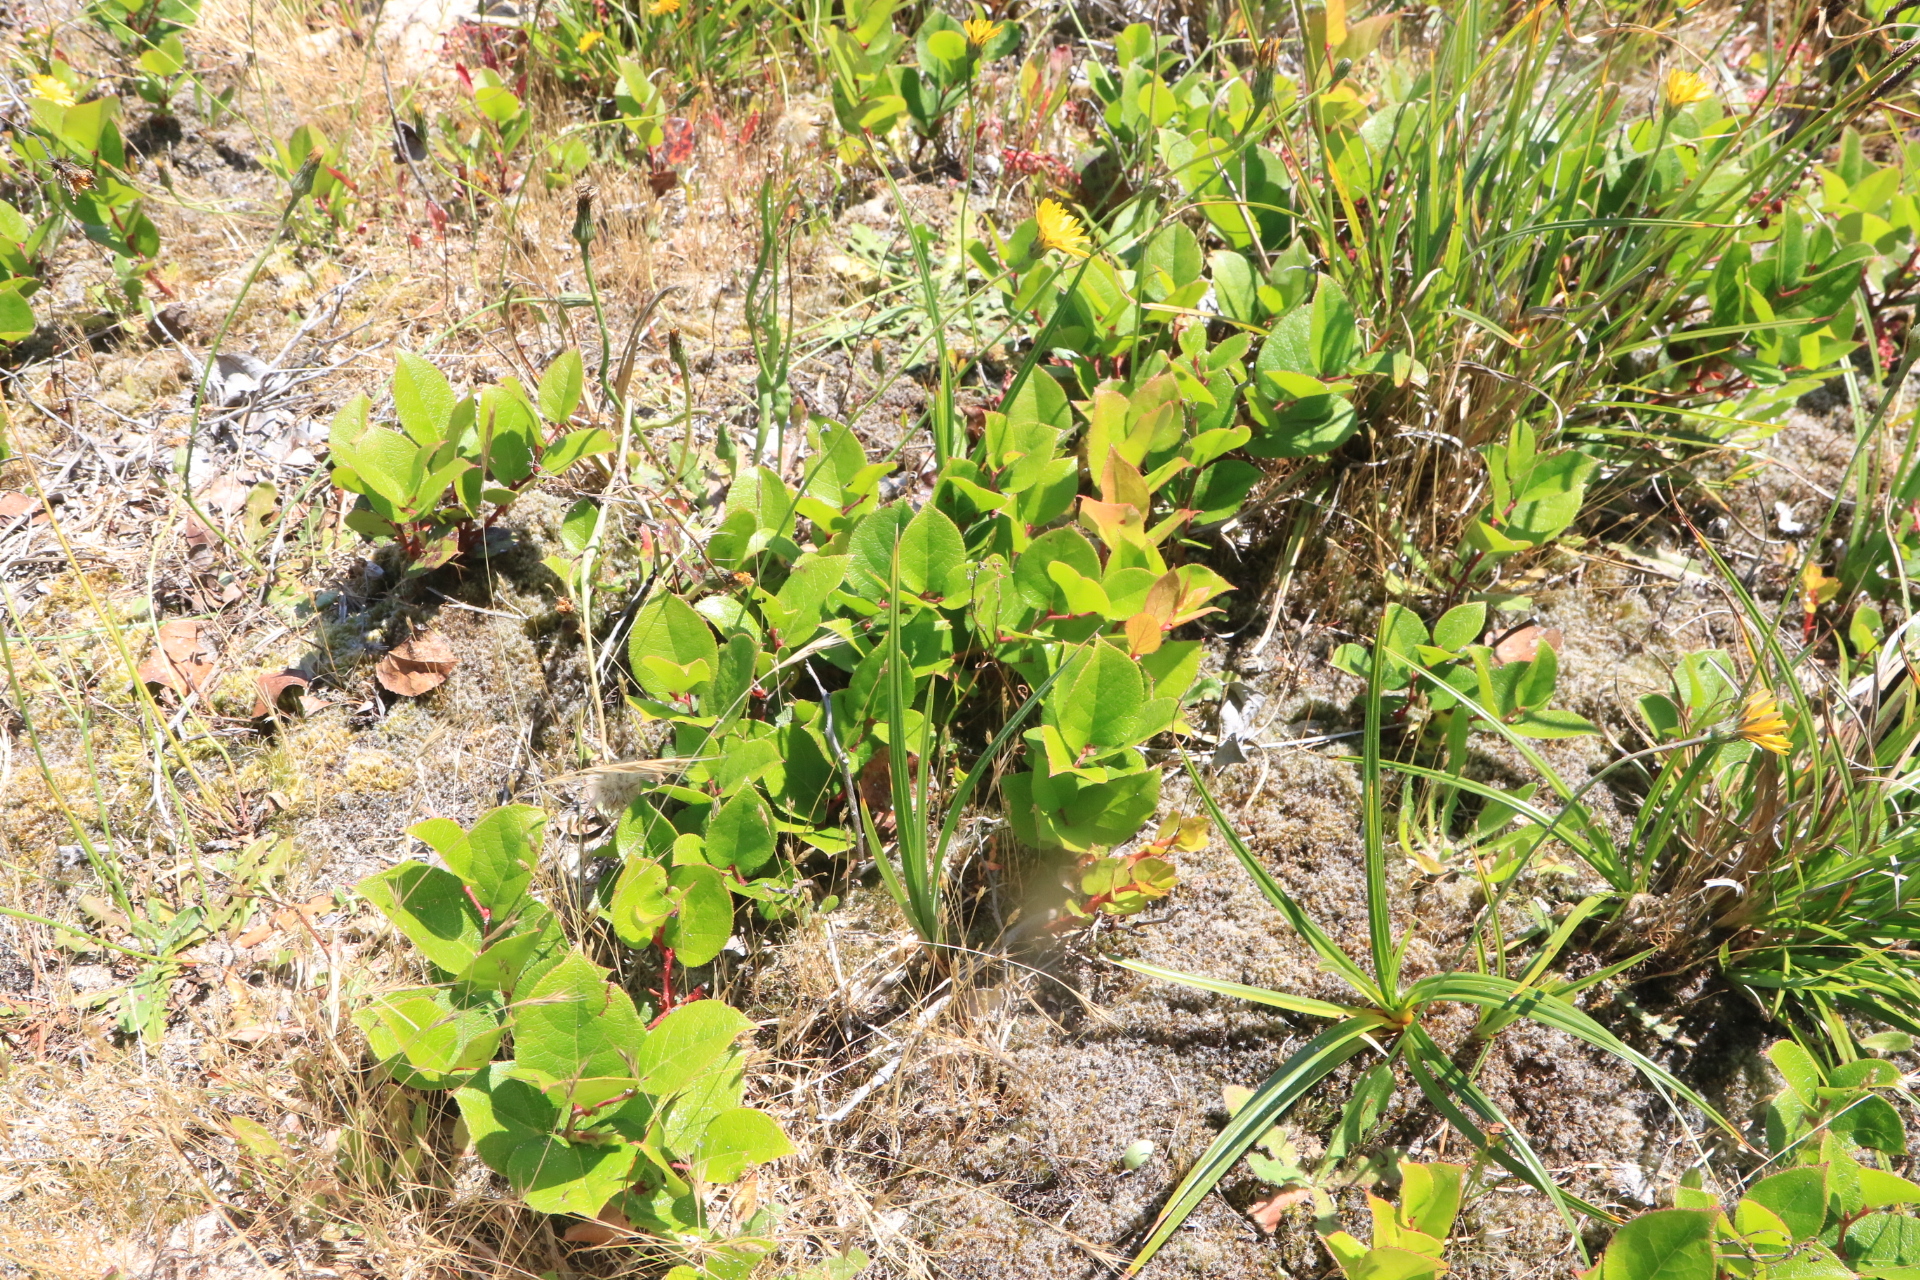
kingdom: Plantae
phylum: Tracheophyta
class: Magnoliopsida
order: Ericales
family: Ericaceae
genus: Gaultheria
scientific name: Gaultheria shallon
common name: Shallon
